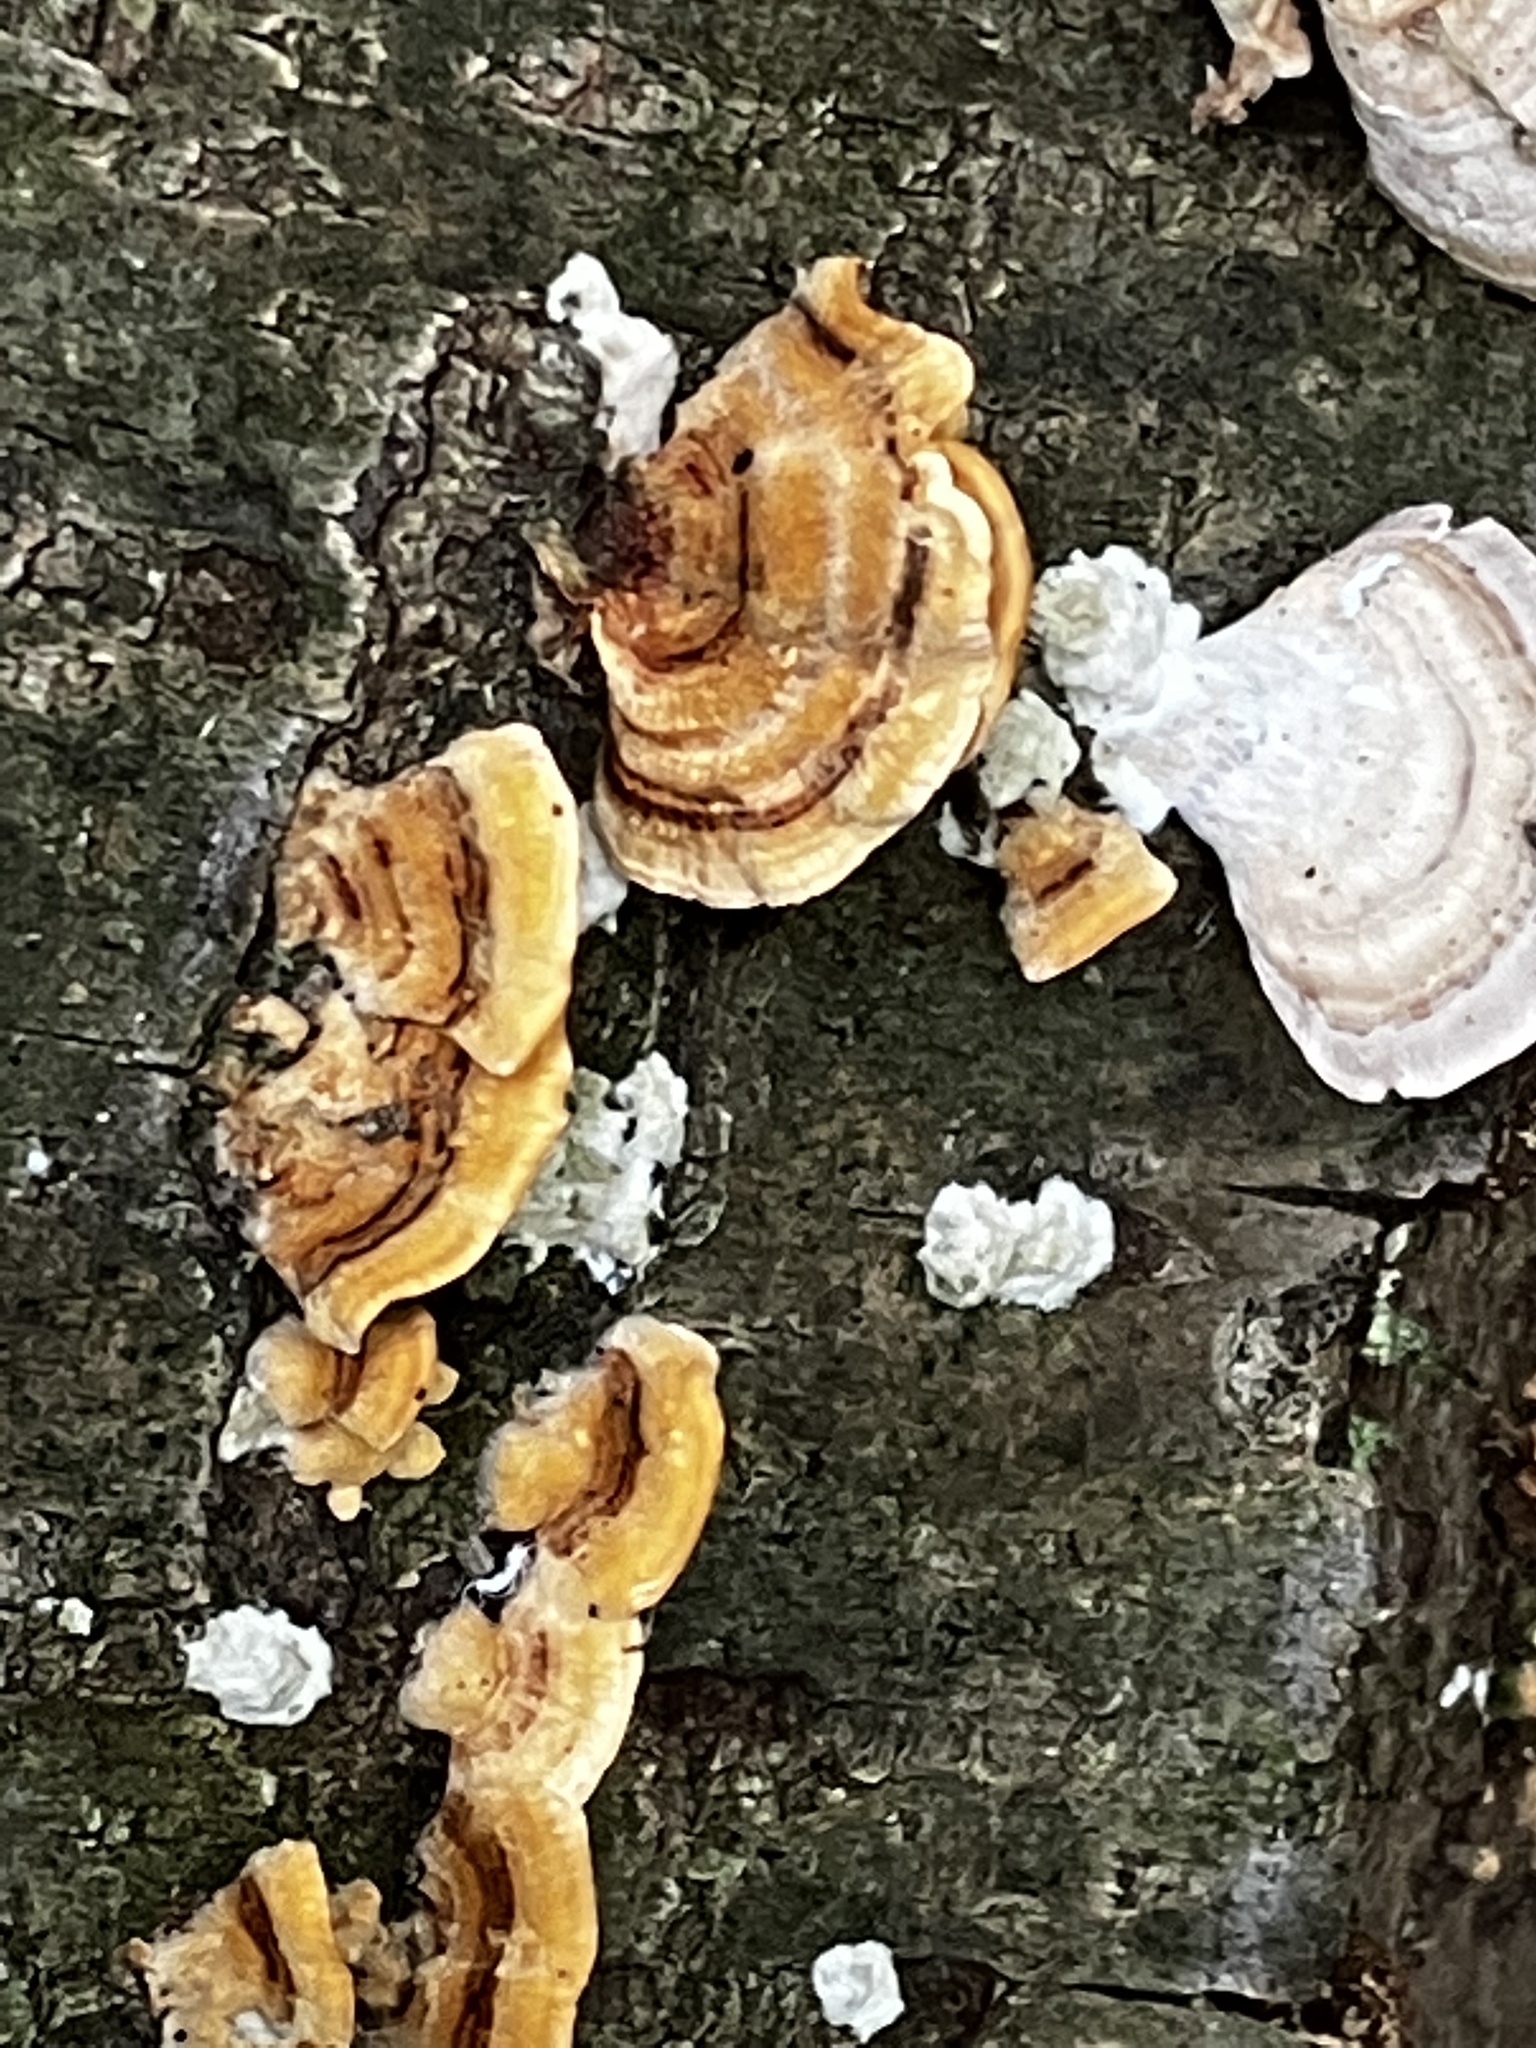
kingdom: Fungi
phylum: Basidiomycota
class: Agaricomycetes
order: Russulales
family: Stereaceae
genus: Stereum
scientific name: Stereum complicatum
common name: Crowded parchment
